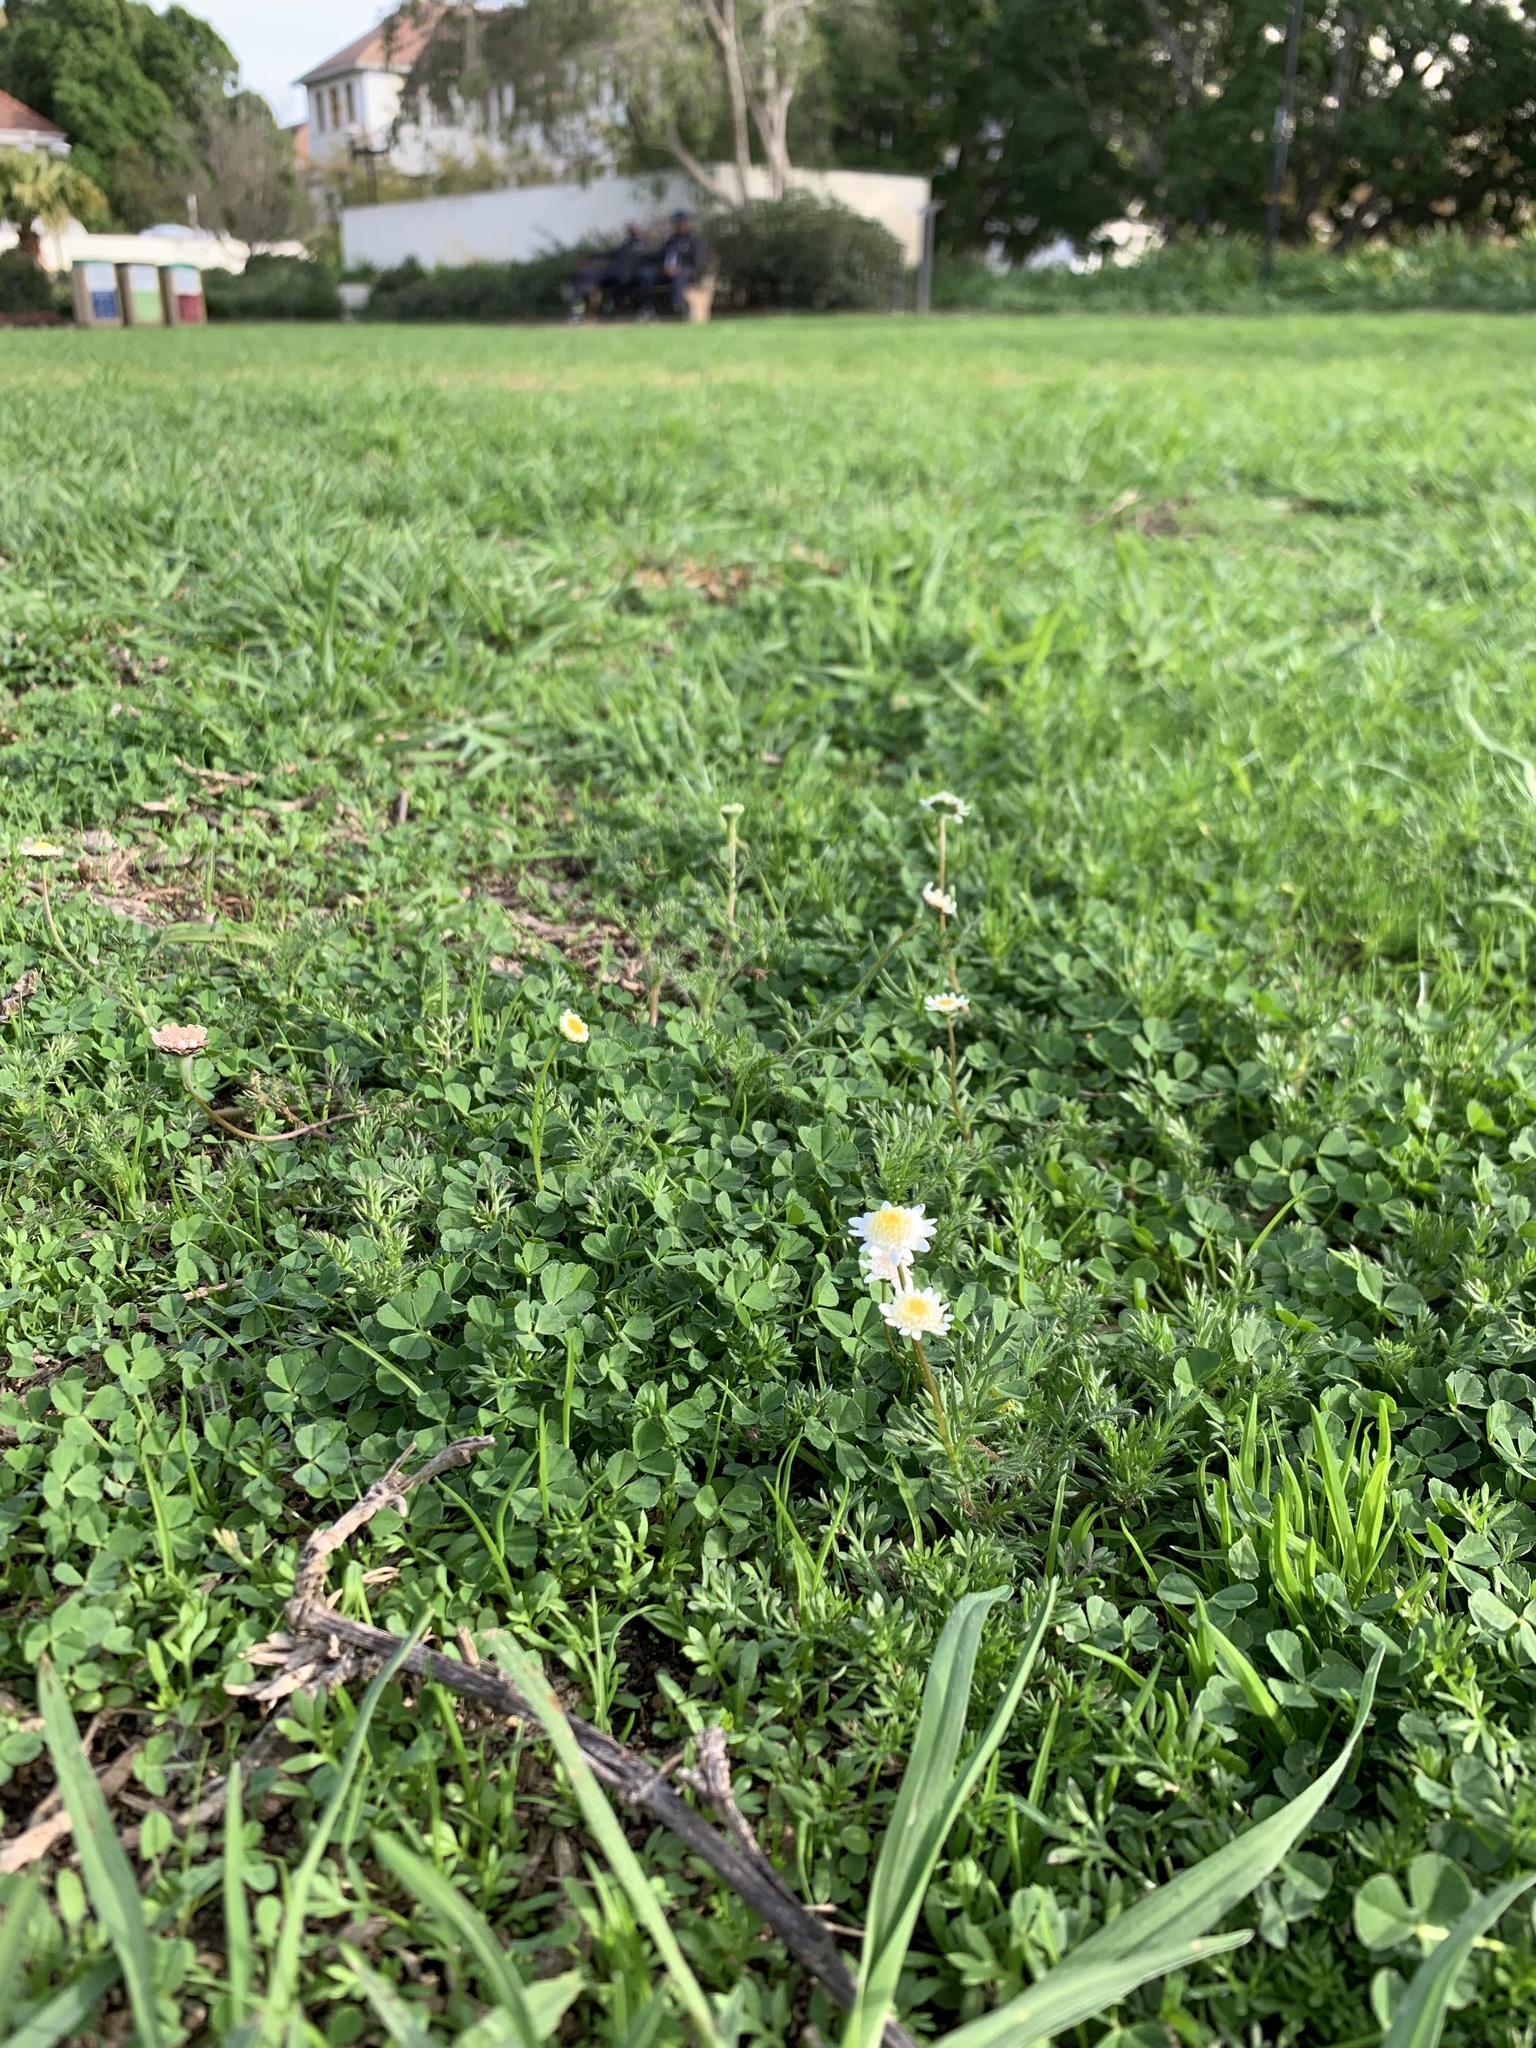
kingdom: Plantae
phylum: Tracheophyta
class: Magnoliopsida
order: Asterales
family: Asteraceae
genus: Cotula
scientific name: Cotula turbinata
